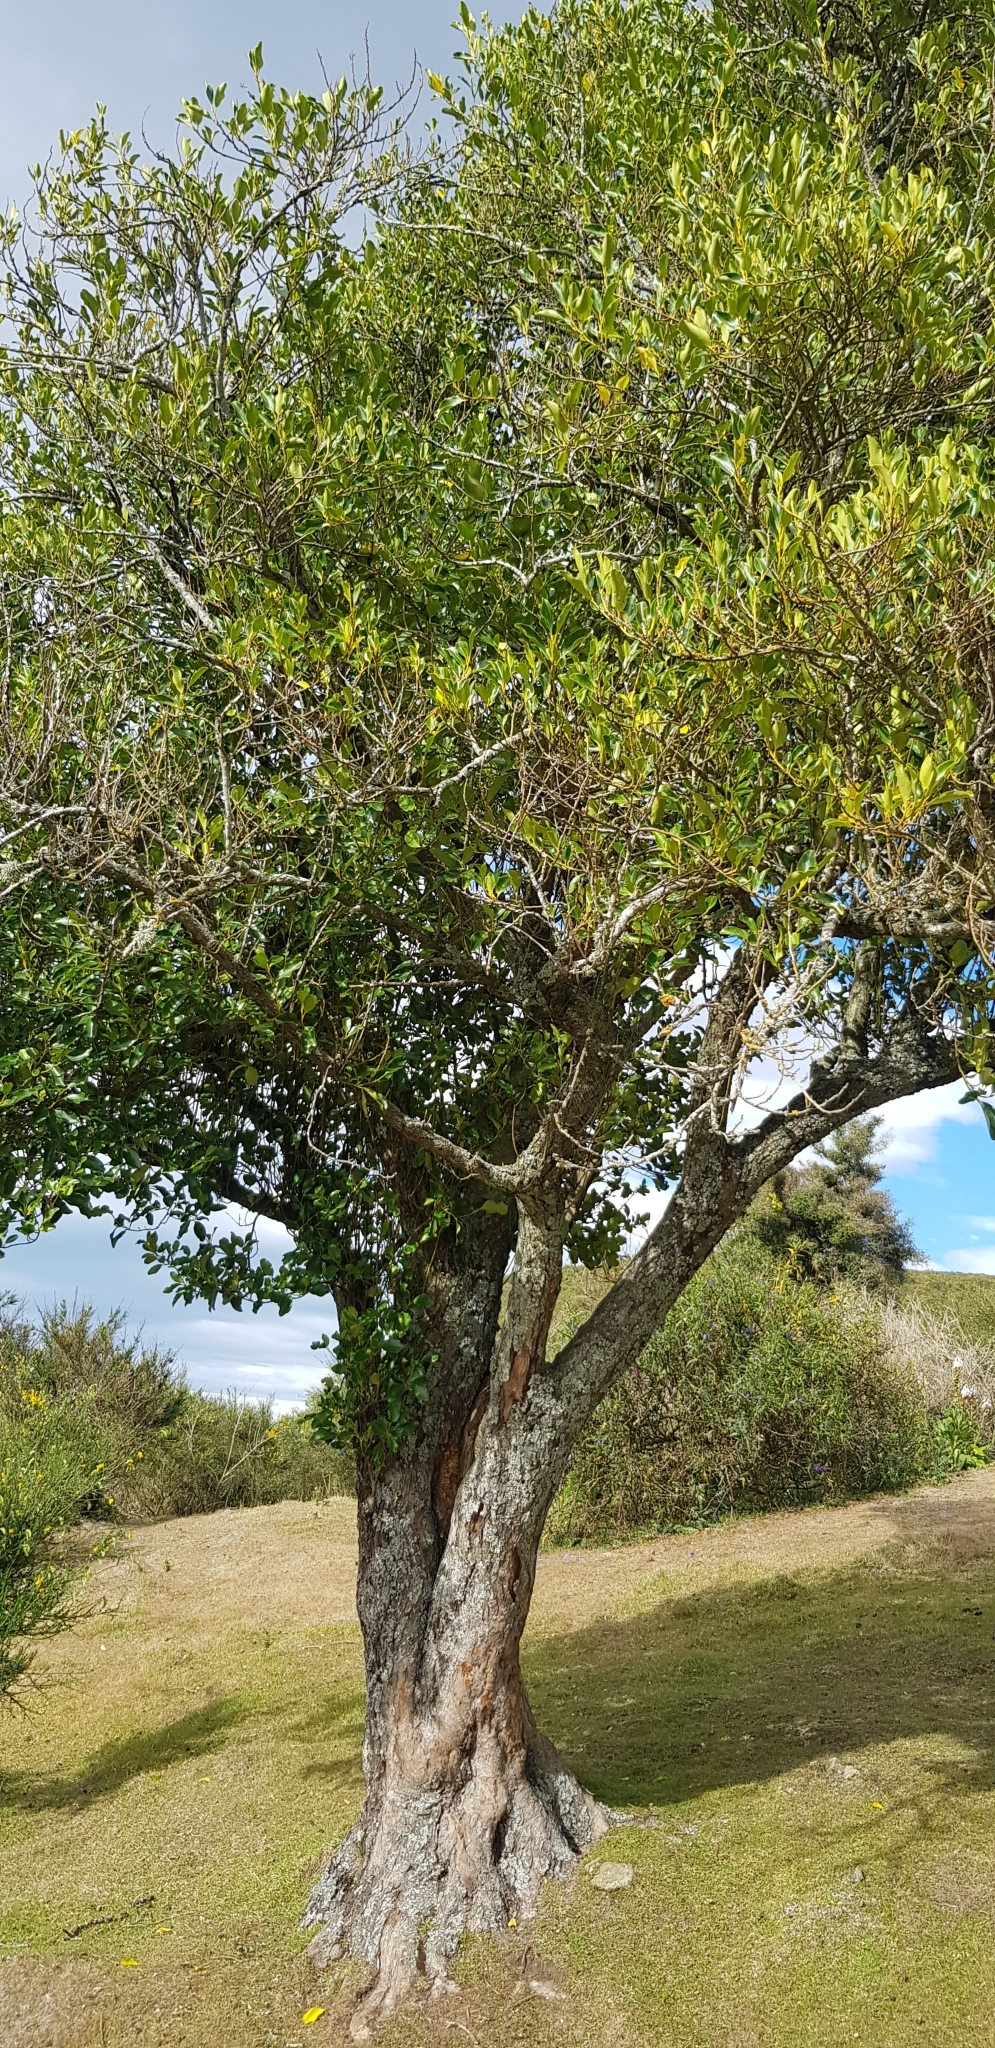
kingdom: Plantae
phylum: Tracheophyta
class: Magnoliopsida
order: Apiales
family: Griseliniaceae
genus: Griselinia
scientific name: Griselinia littoralis
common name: New zealand broadleaf
